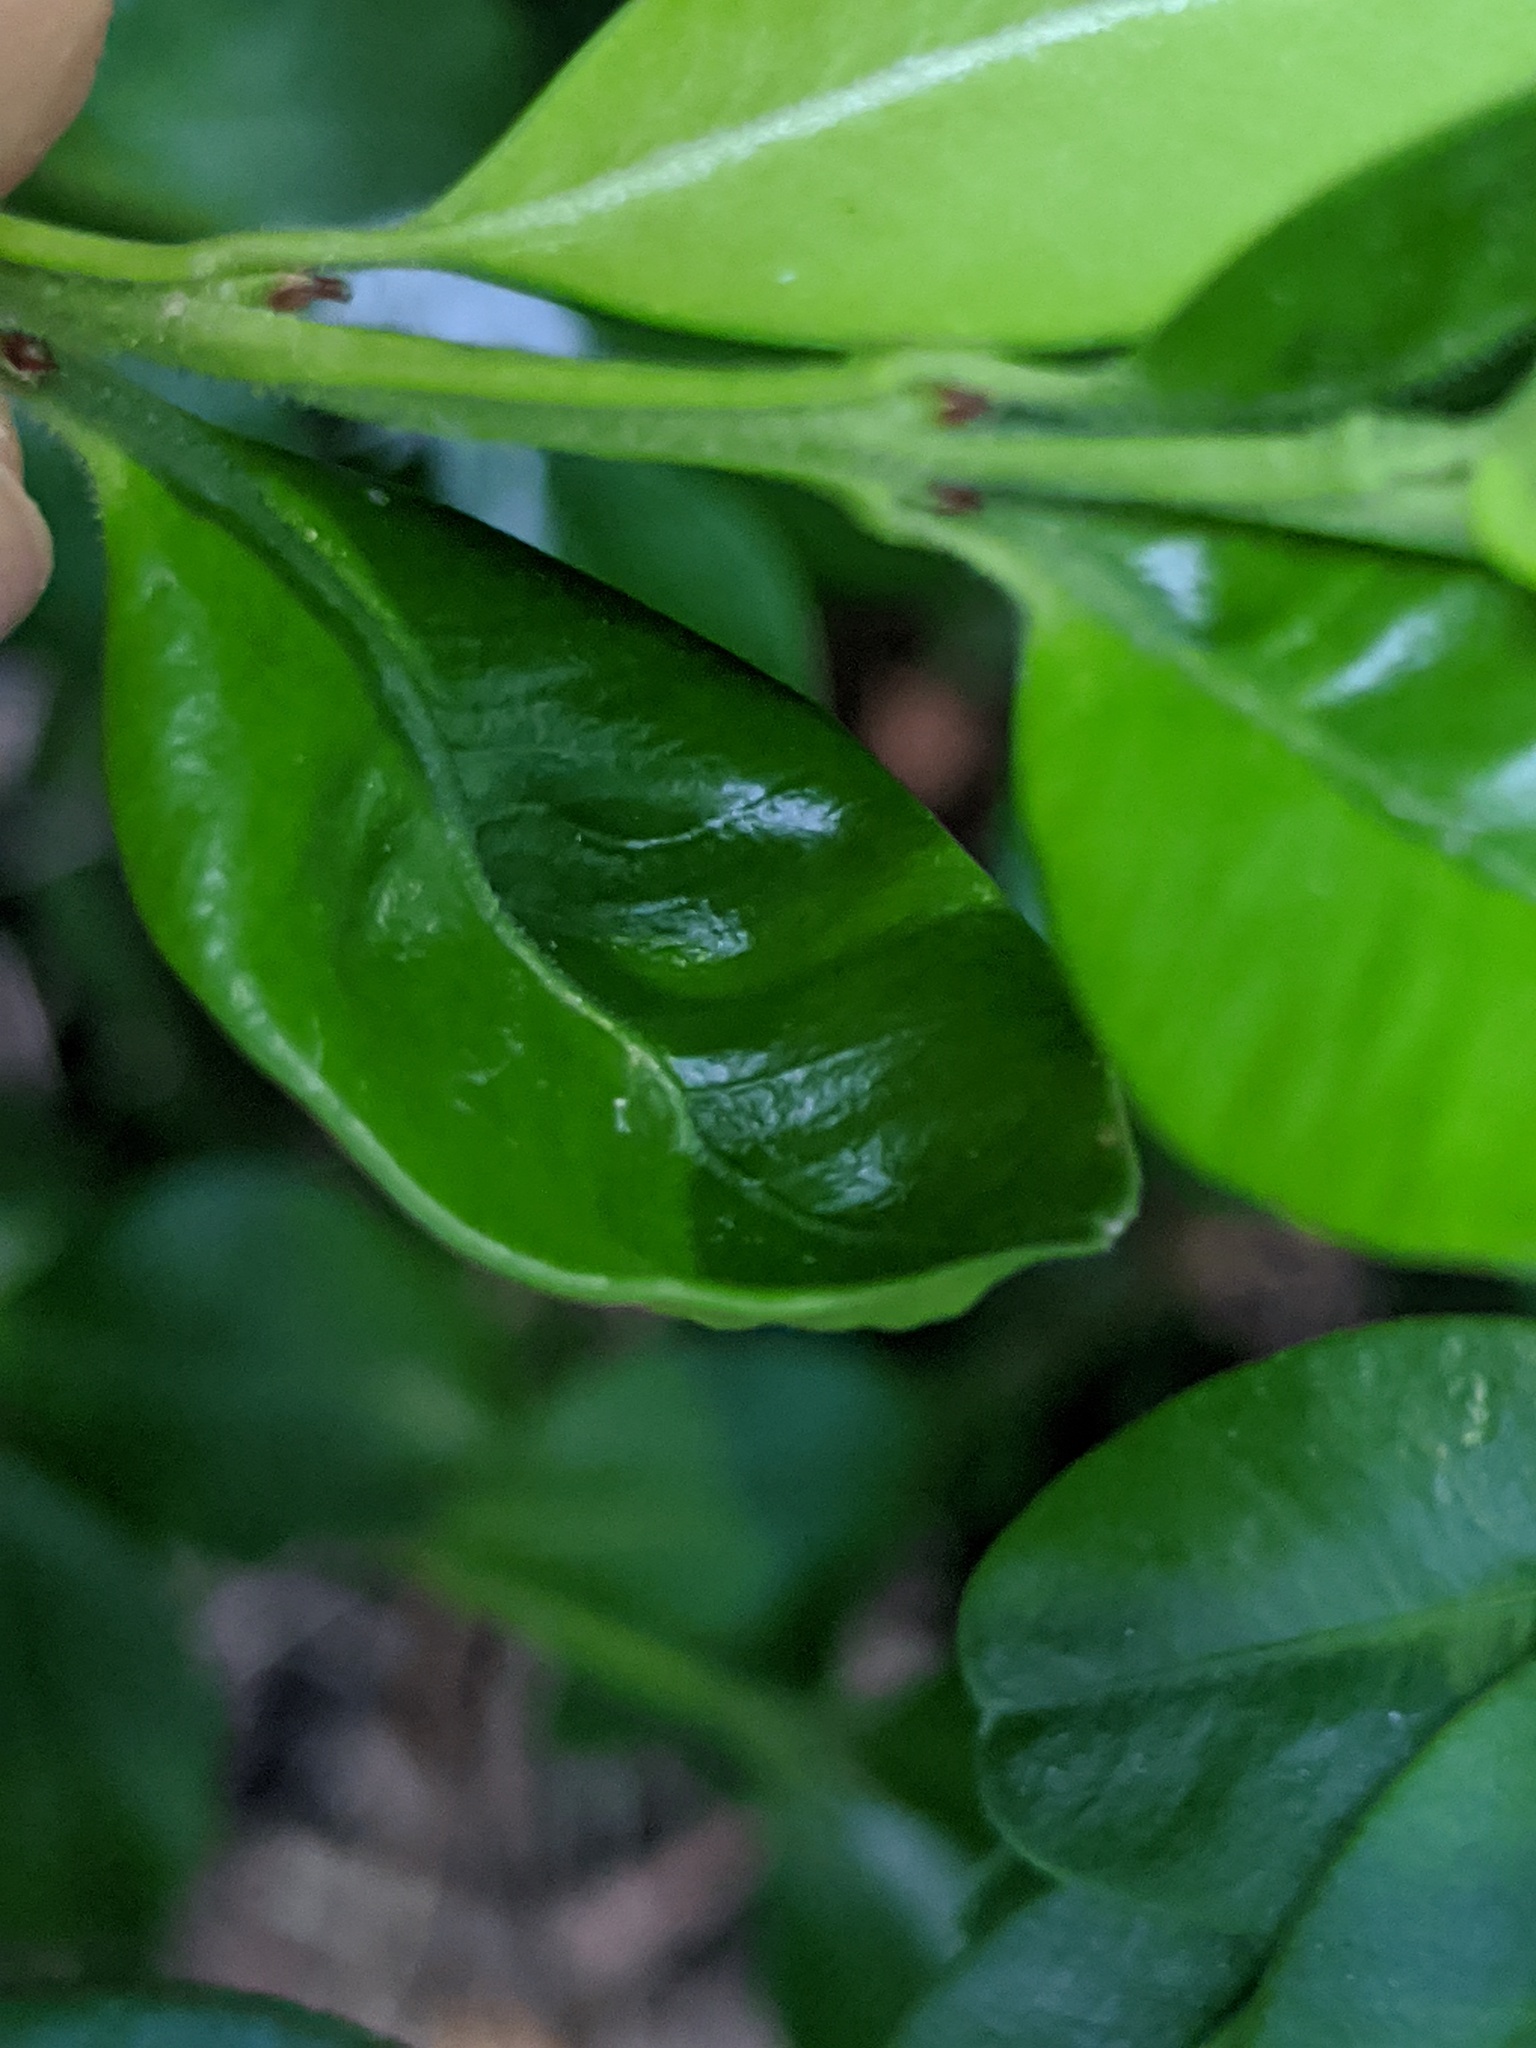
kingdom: Animalia
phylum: Arthropoda
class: Insecta
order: Hemiptera
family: Psyllidae
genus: Psylla
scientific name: Psylla buxi
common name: Boxwood psyllid
